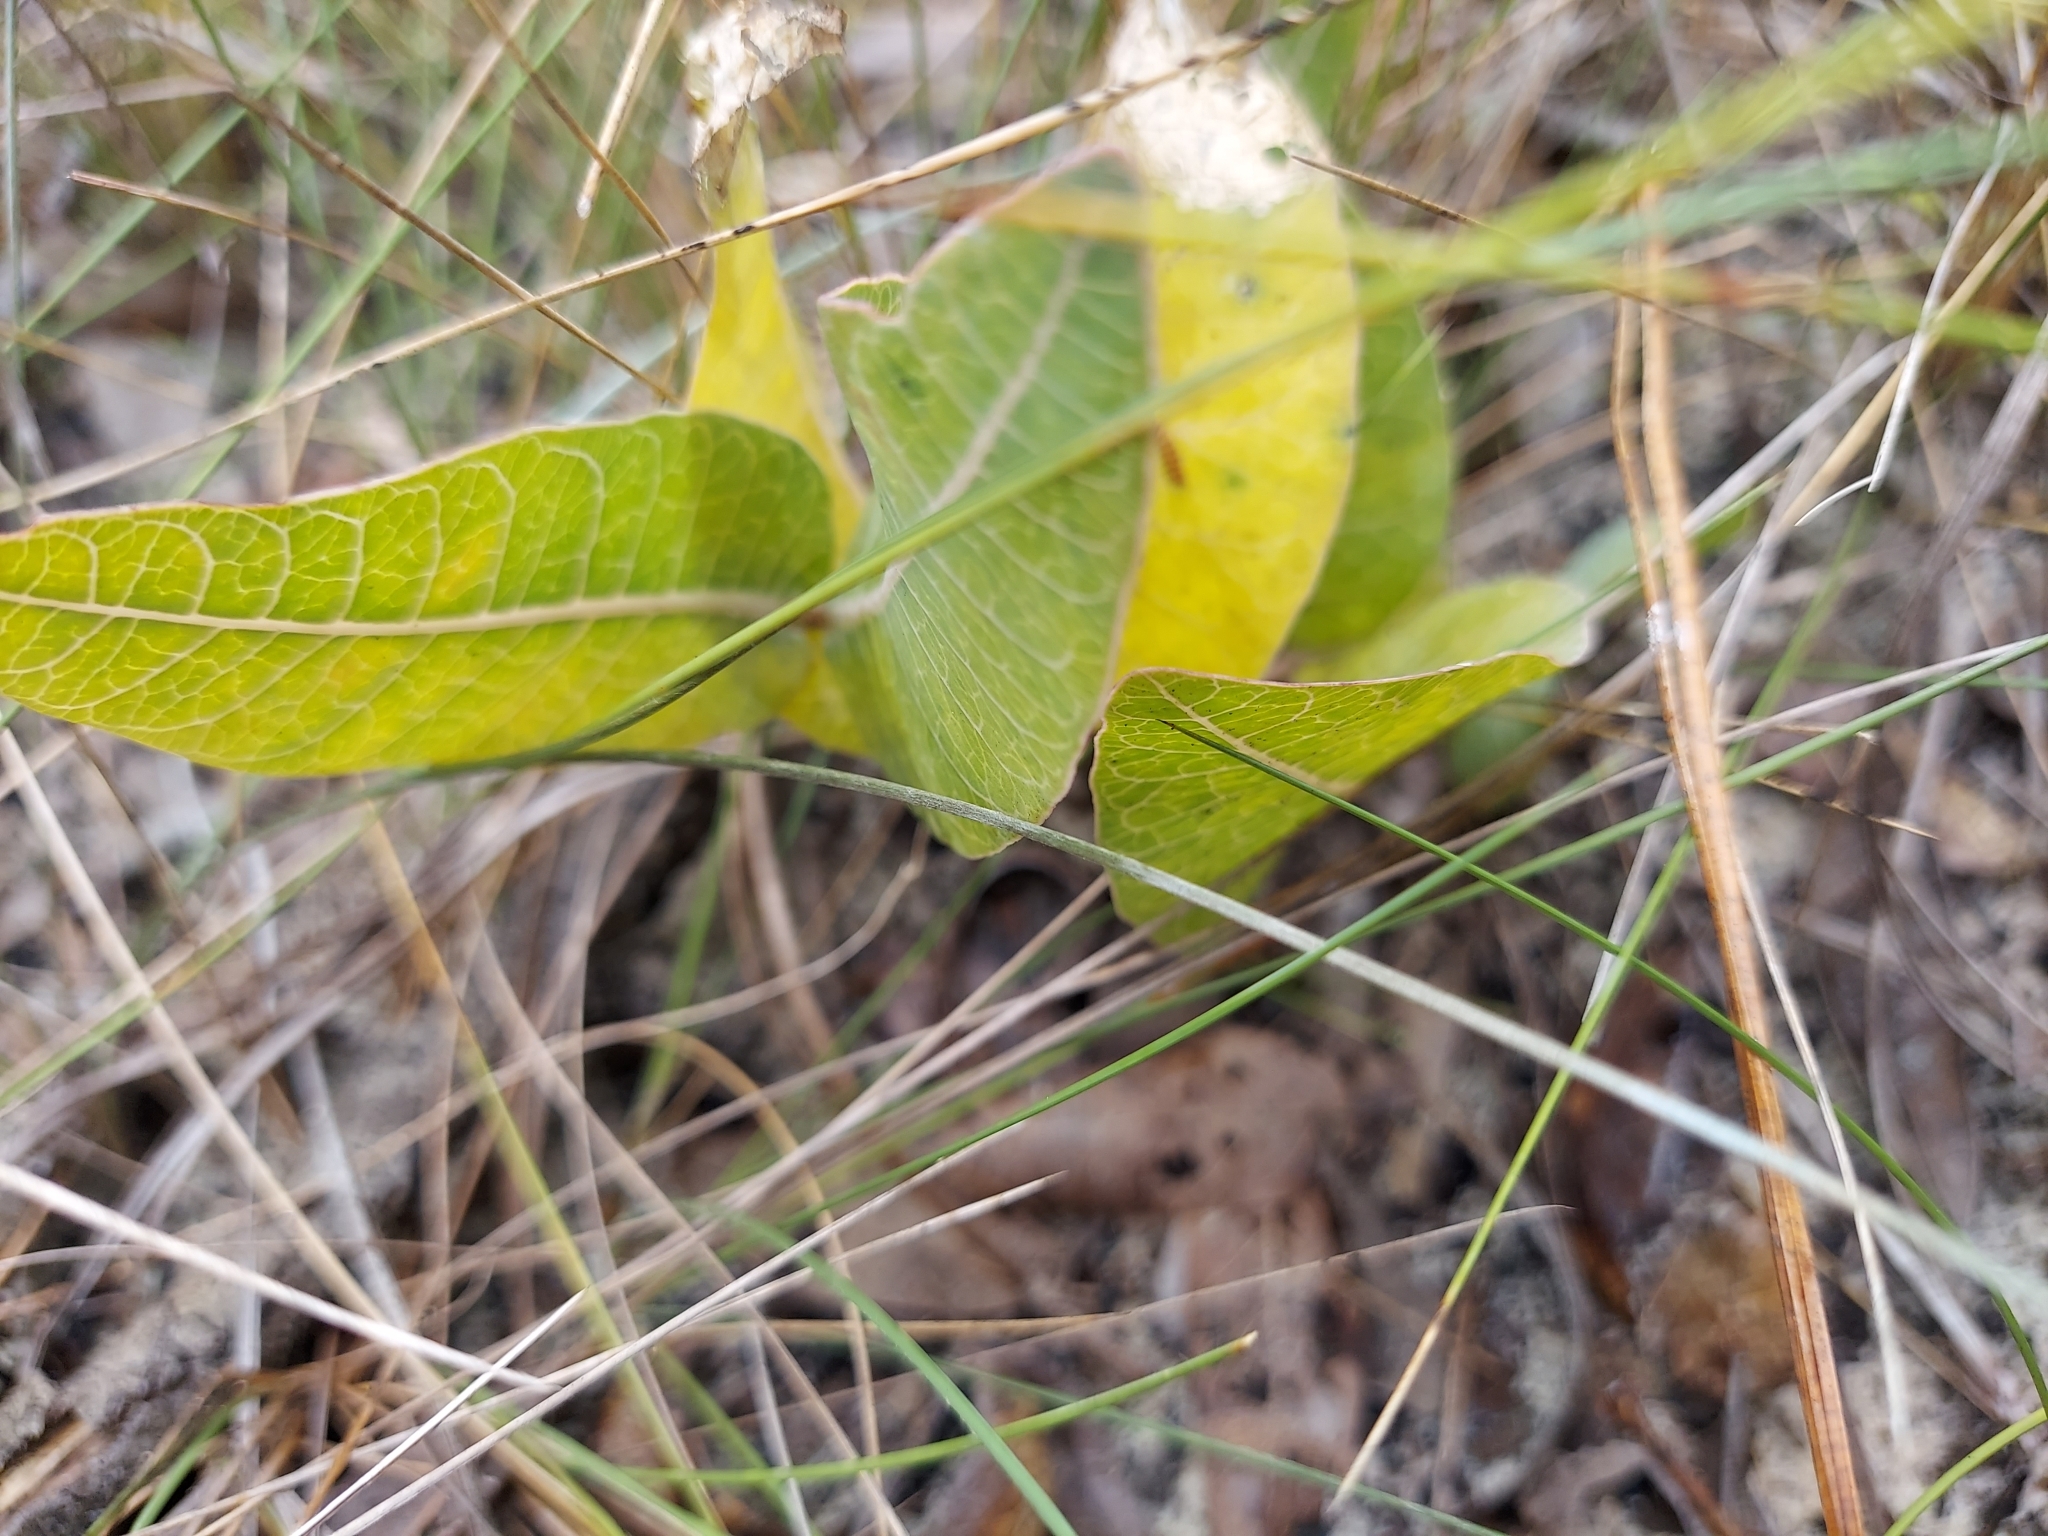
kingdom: Plantae
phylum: Tracheophyta
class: Magnoliopsida
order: Gentianales
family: Apocynaceae
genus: Asclepias
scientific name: Asclepias humistrata
